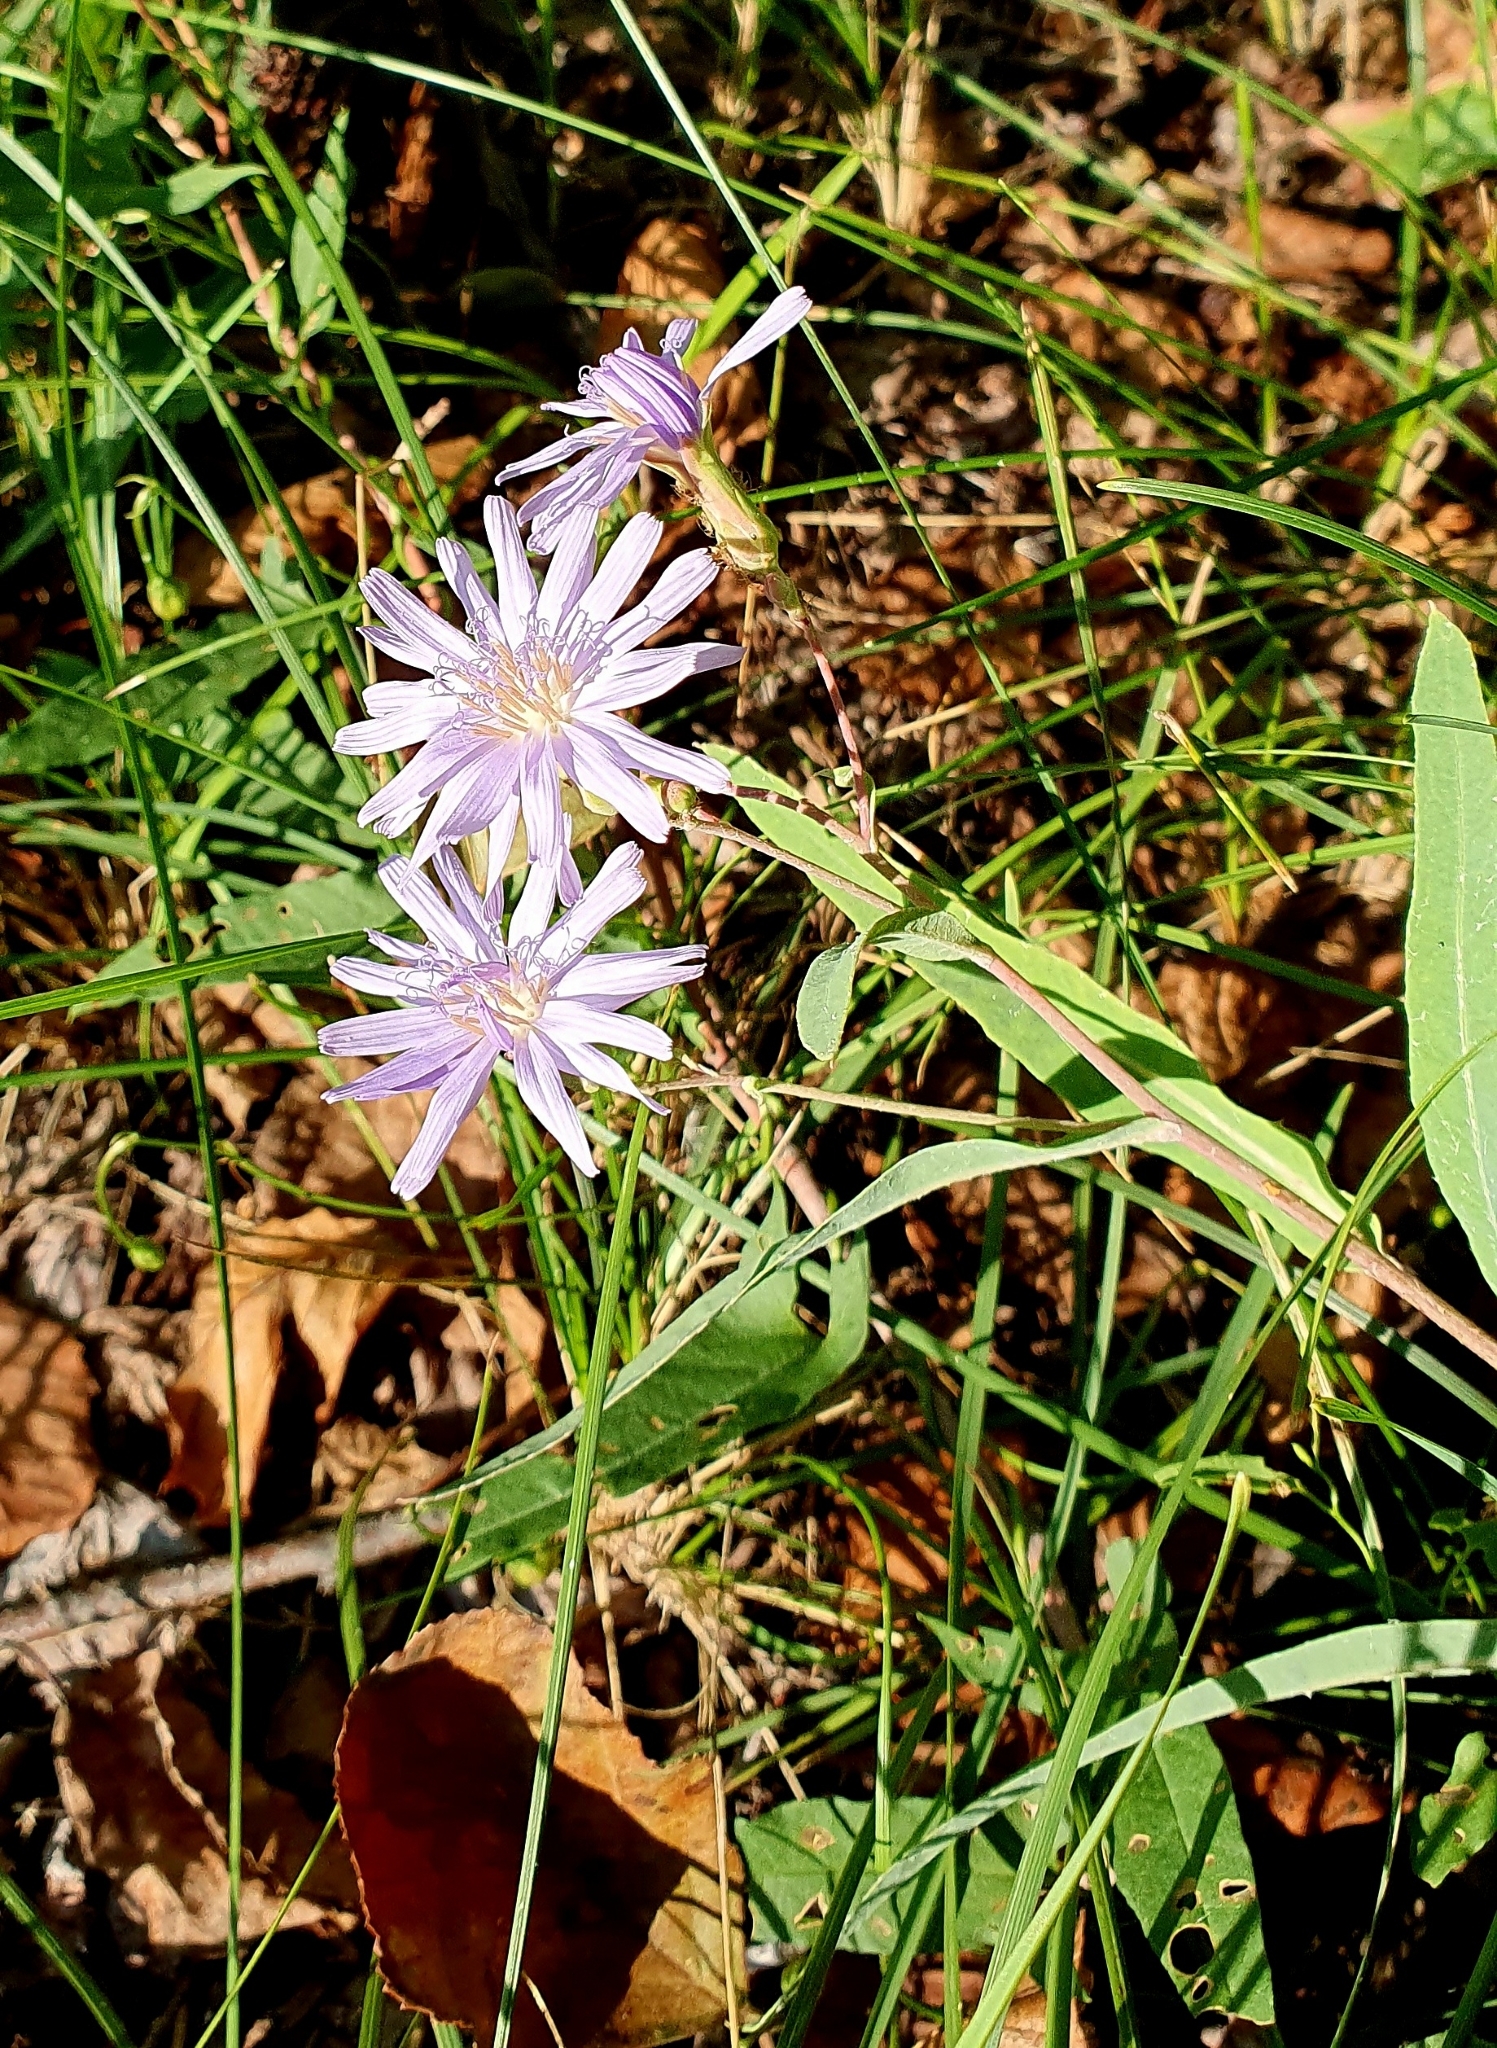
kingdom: Plantae
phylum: Tracheophyta
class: Magnoliopsida
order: Asterales
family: Asteraceae
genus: Lactuca
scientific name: Lactuca tatarica
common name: Blue lettuce
